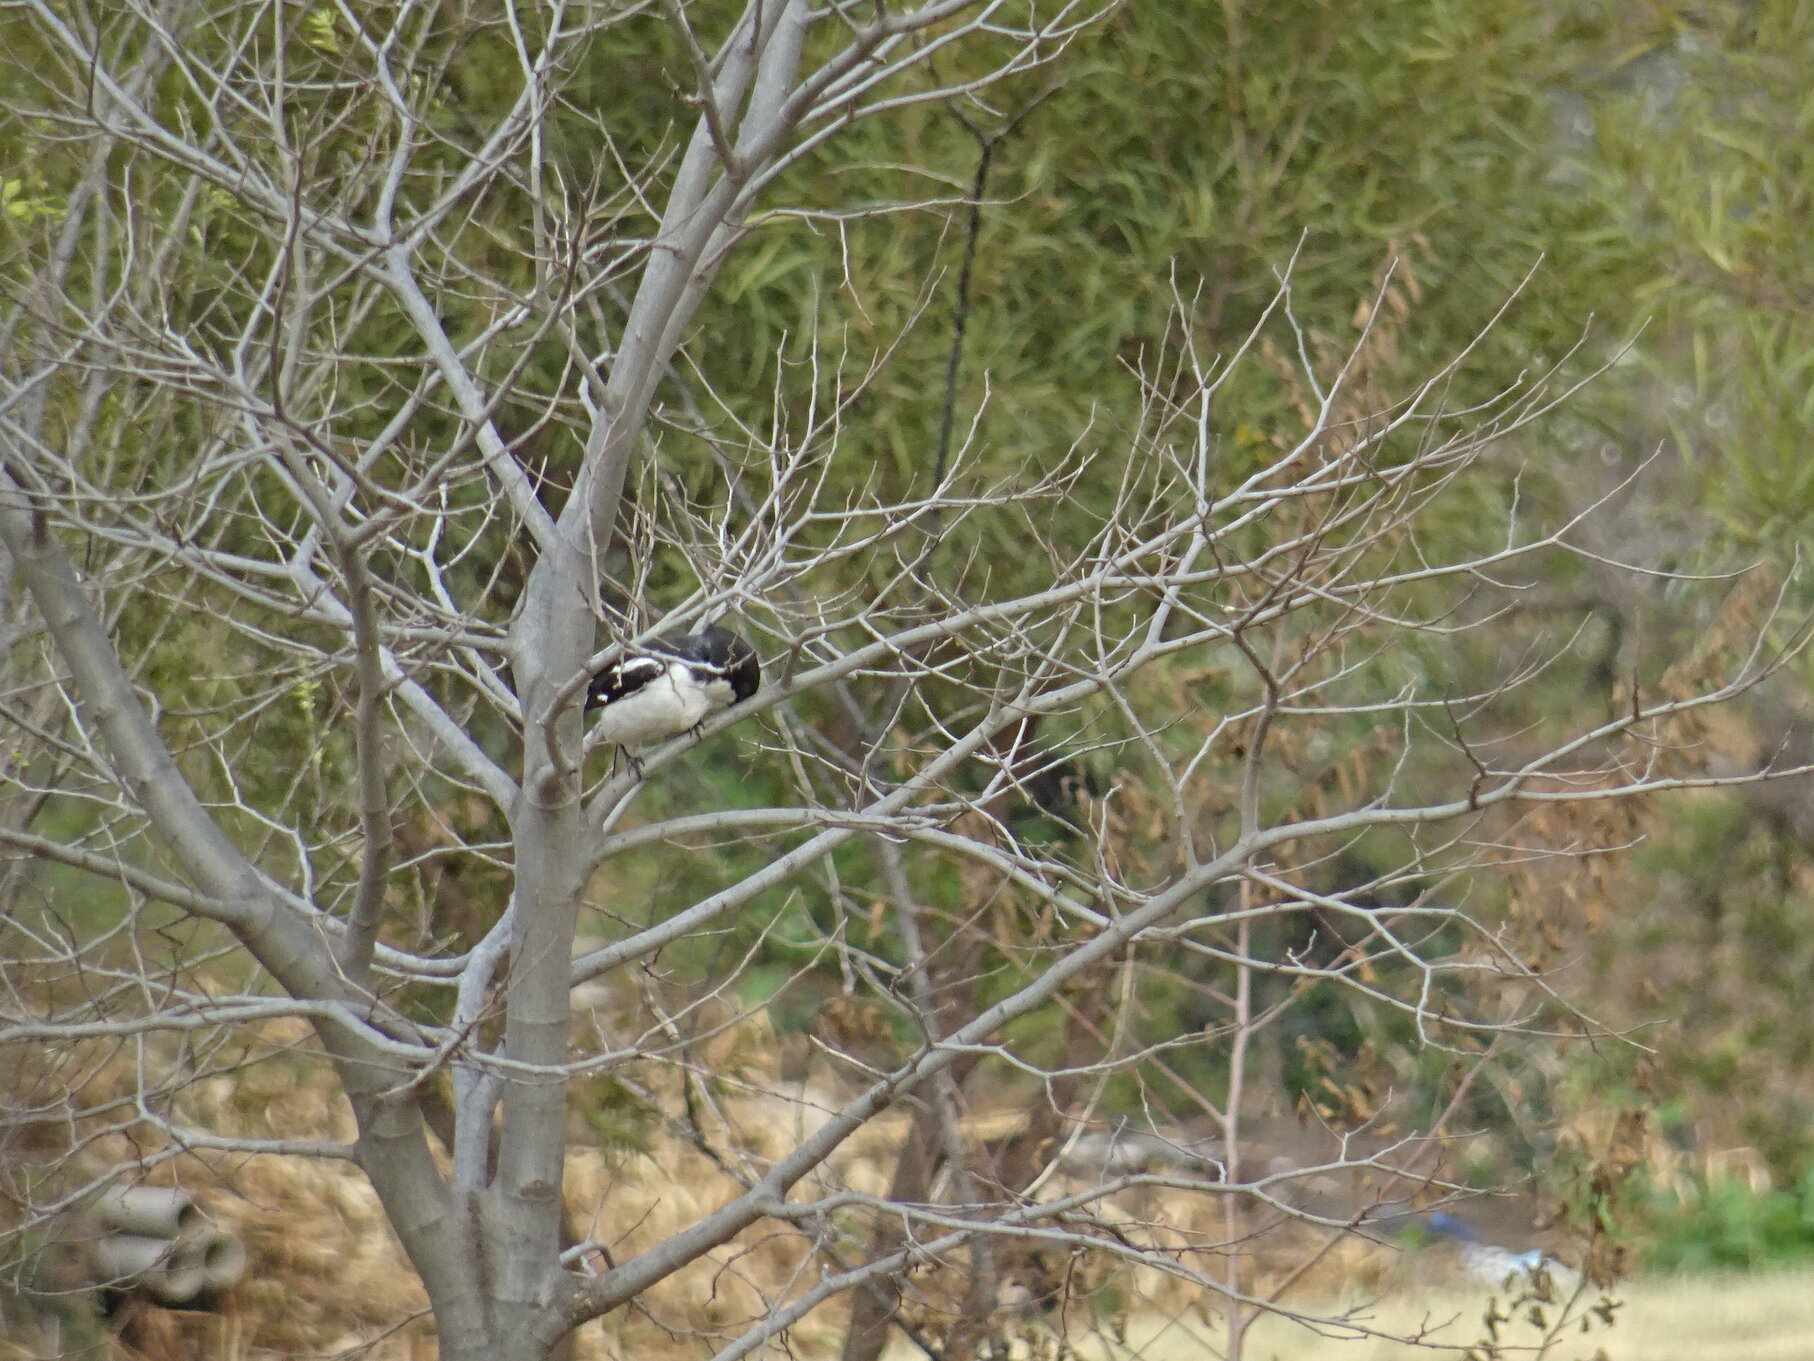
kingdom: Animalia
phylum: Chordata
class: Aves
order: Passeriformes
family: Laniidae
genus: Lanius
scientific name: Lanius collaris
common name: Southern fiscal
